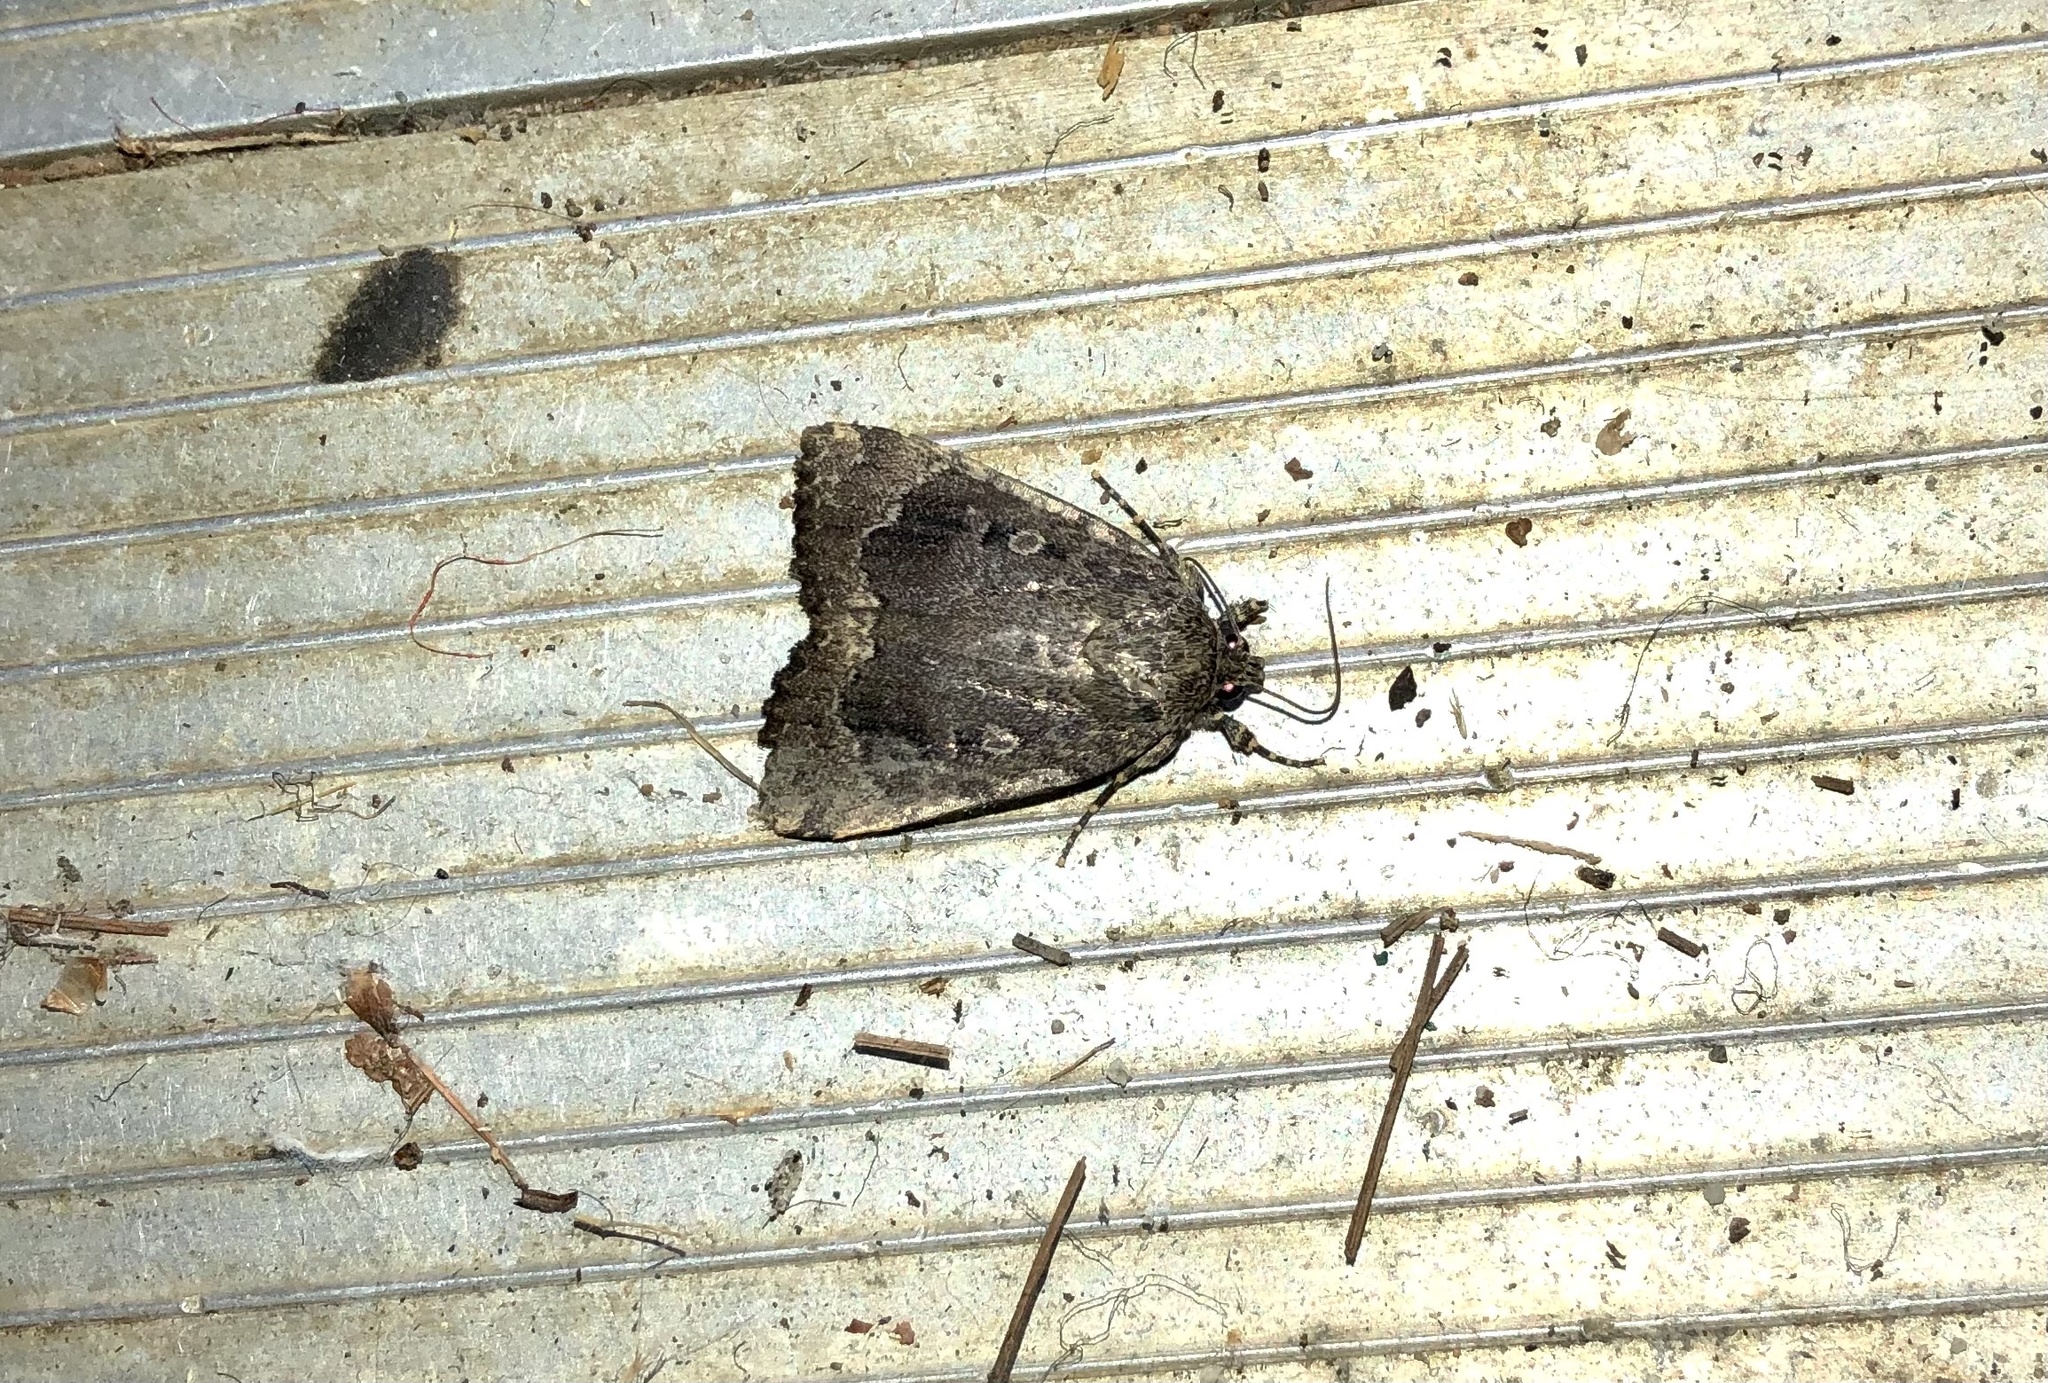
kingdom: Animalia
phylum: Arthropoda
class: Insecta
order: Lepidoptera
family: Noctuidae
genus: Amphipyra
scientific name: Amphipyra pyramidoides
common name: American copper underwing
